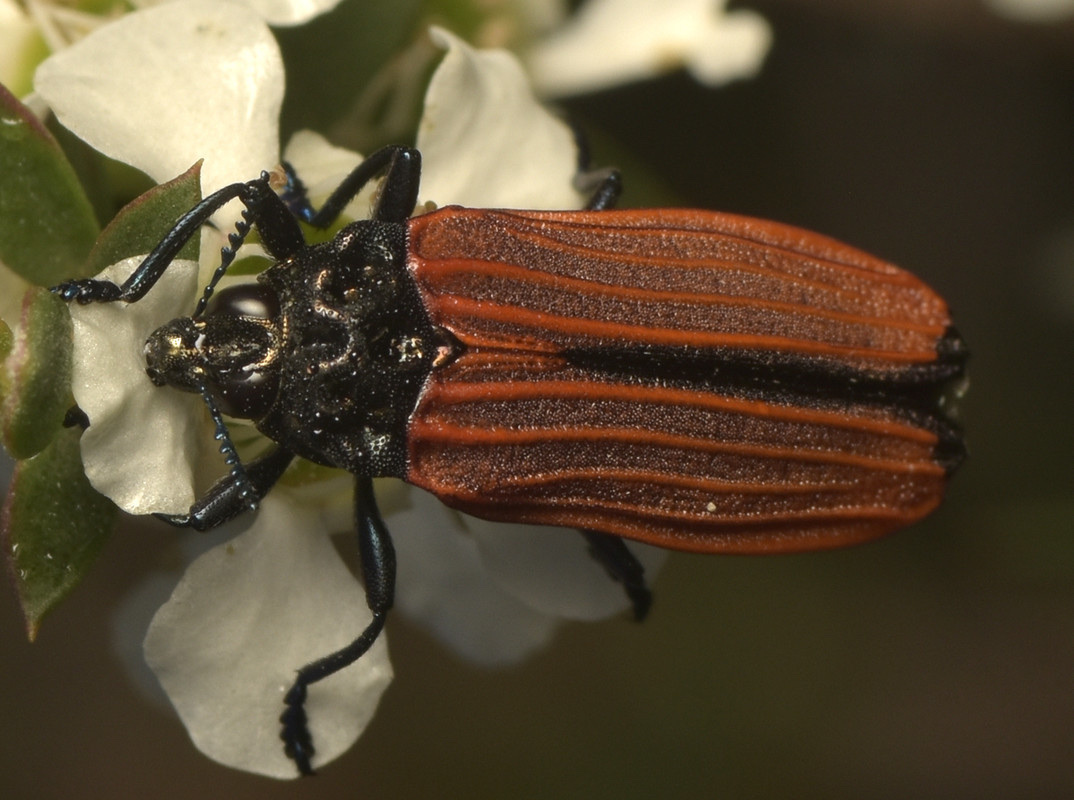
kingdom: Animalia
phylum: Arthropoda
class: Insecta
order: Coleoptera
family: Buprestidae
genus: Castiarina
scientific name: Castiarina nasata
